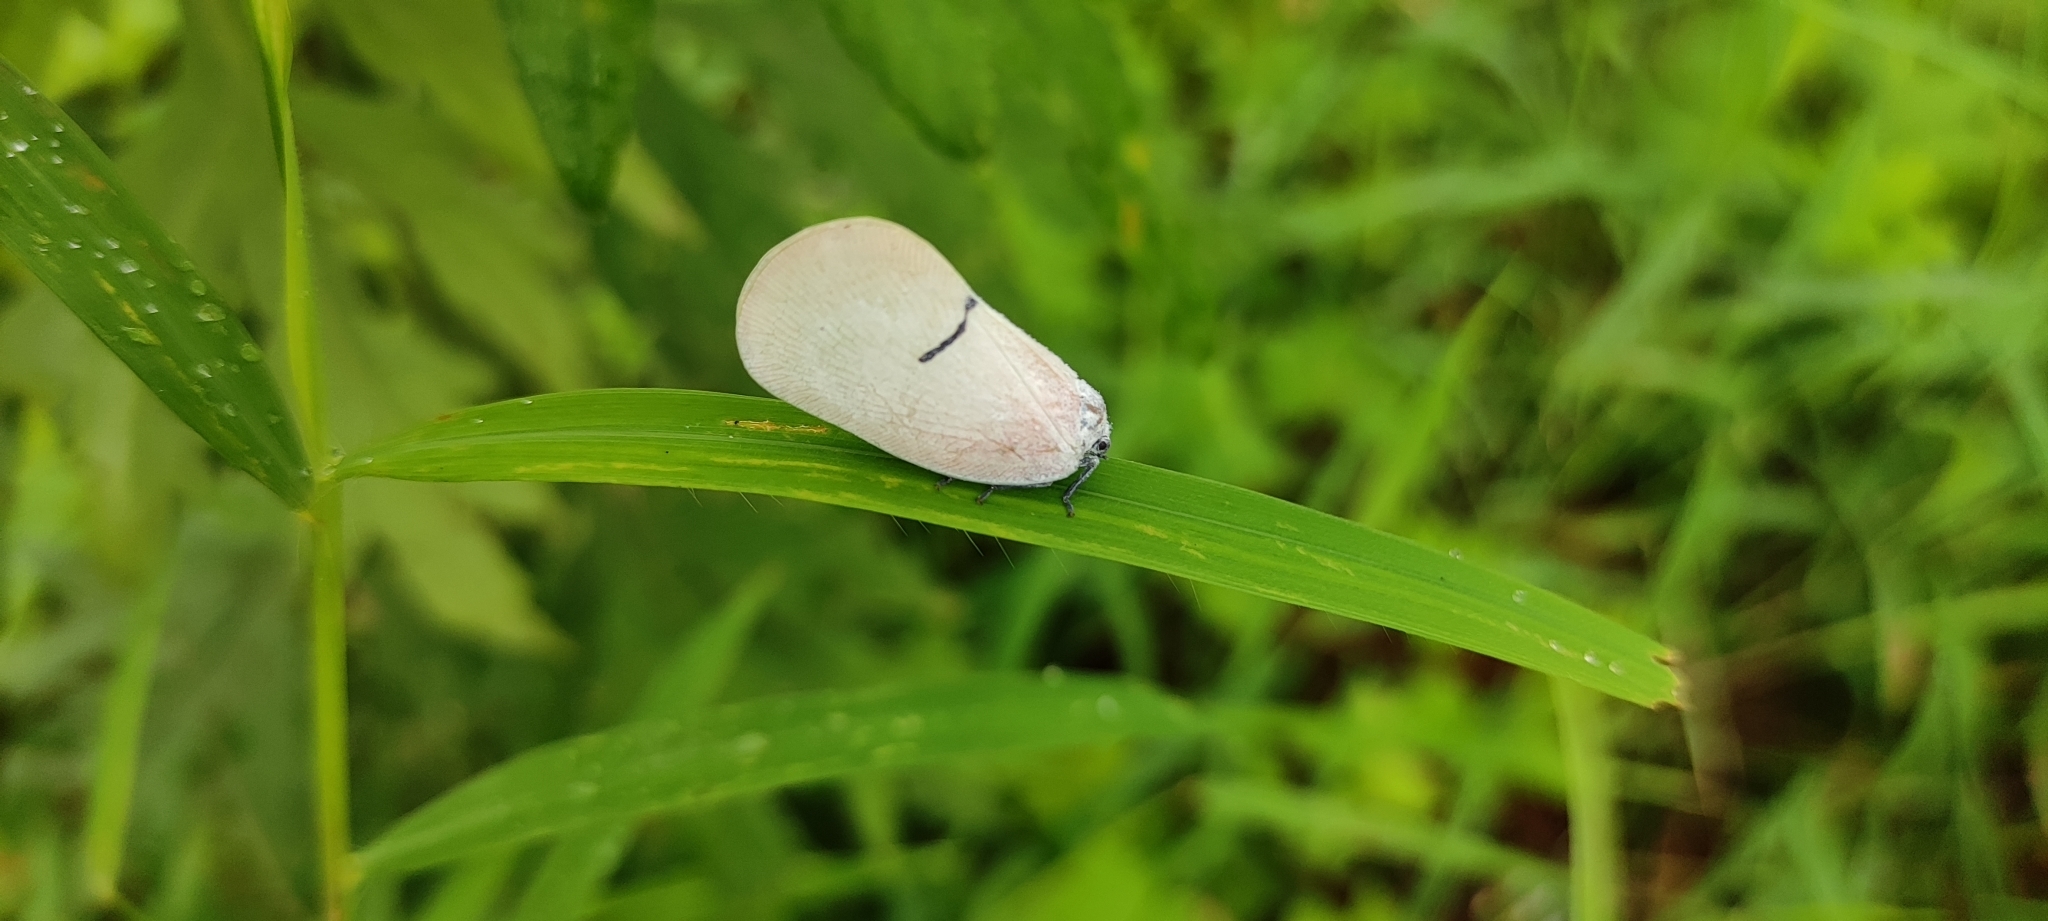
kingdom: Animalia
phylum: Arthropoda
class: Insecta
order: Hemiptera
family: Flatidae
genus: Cerynia
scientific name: Cerynia lineola
